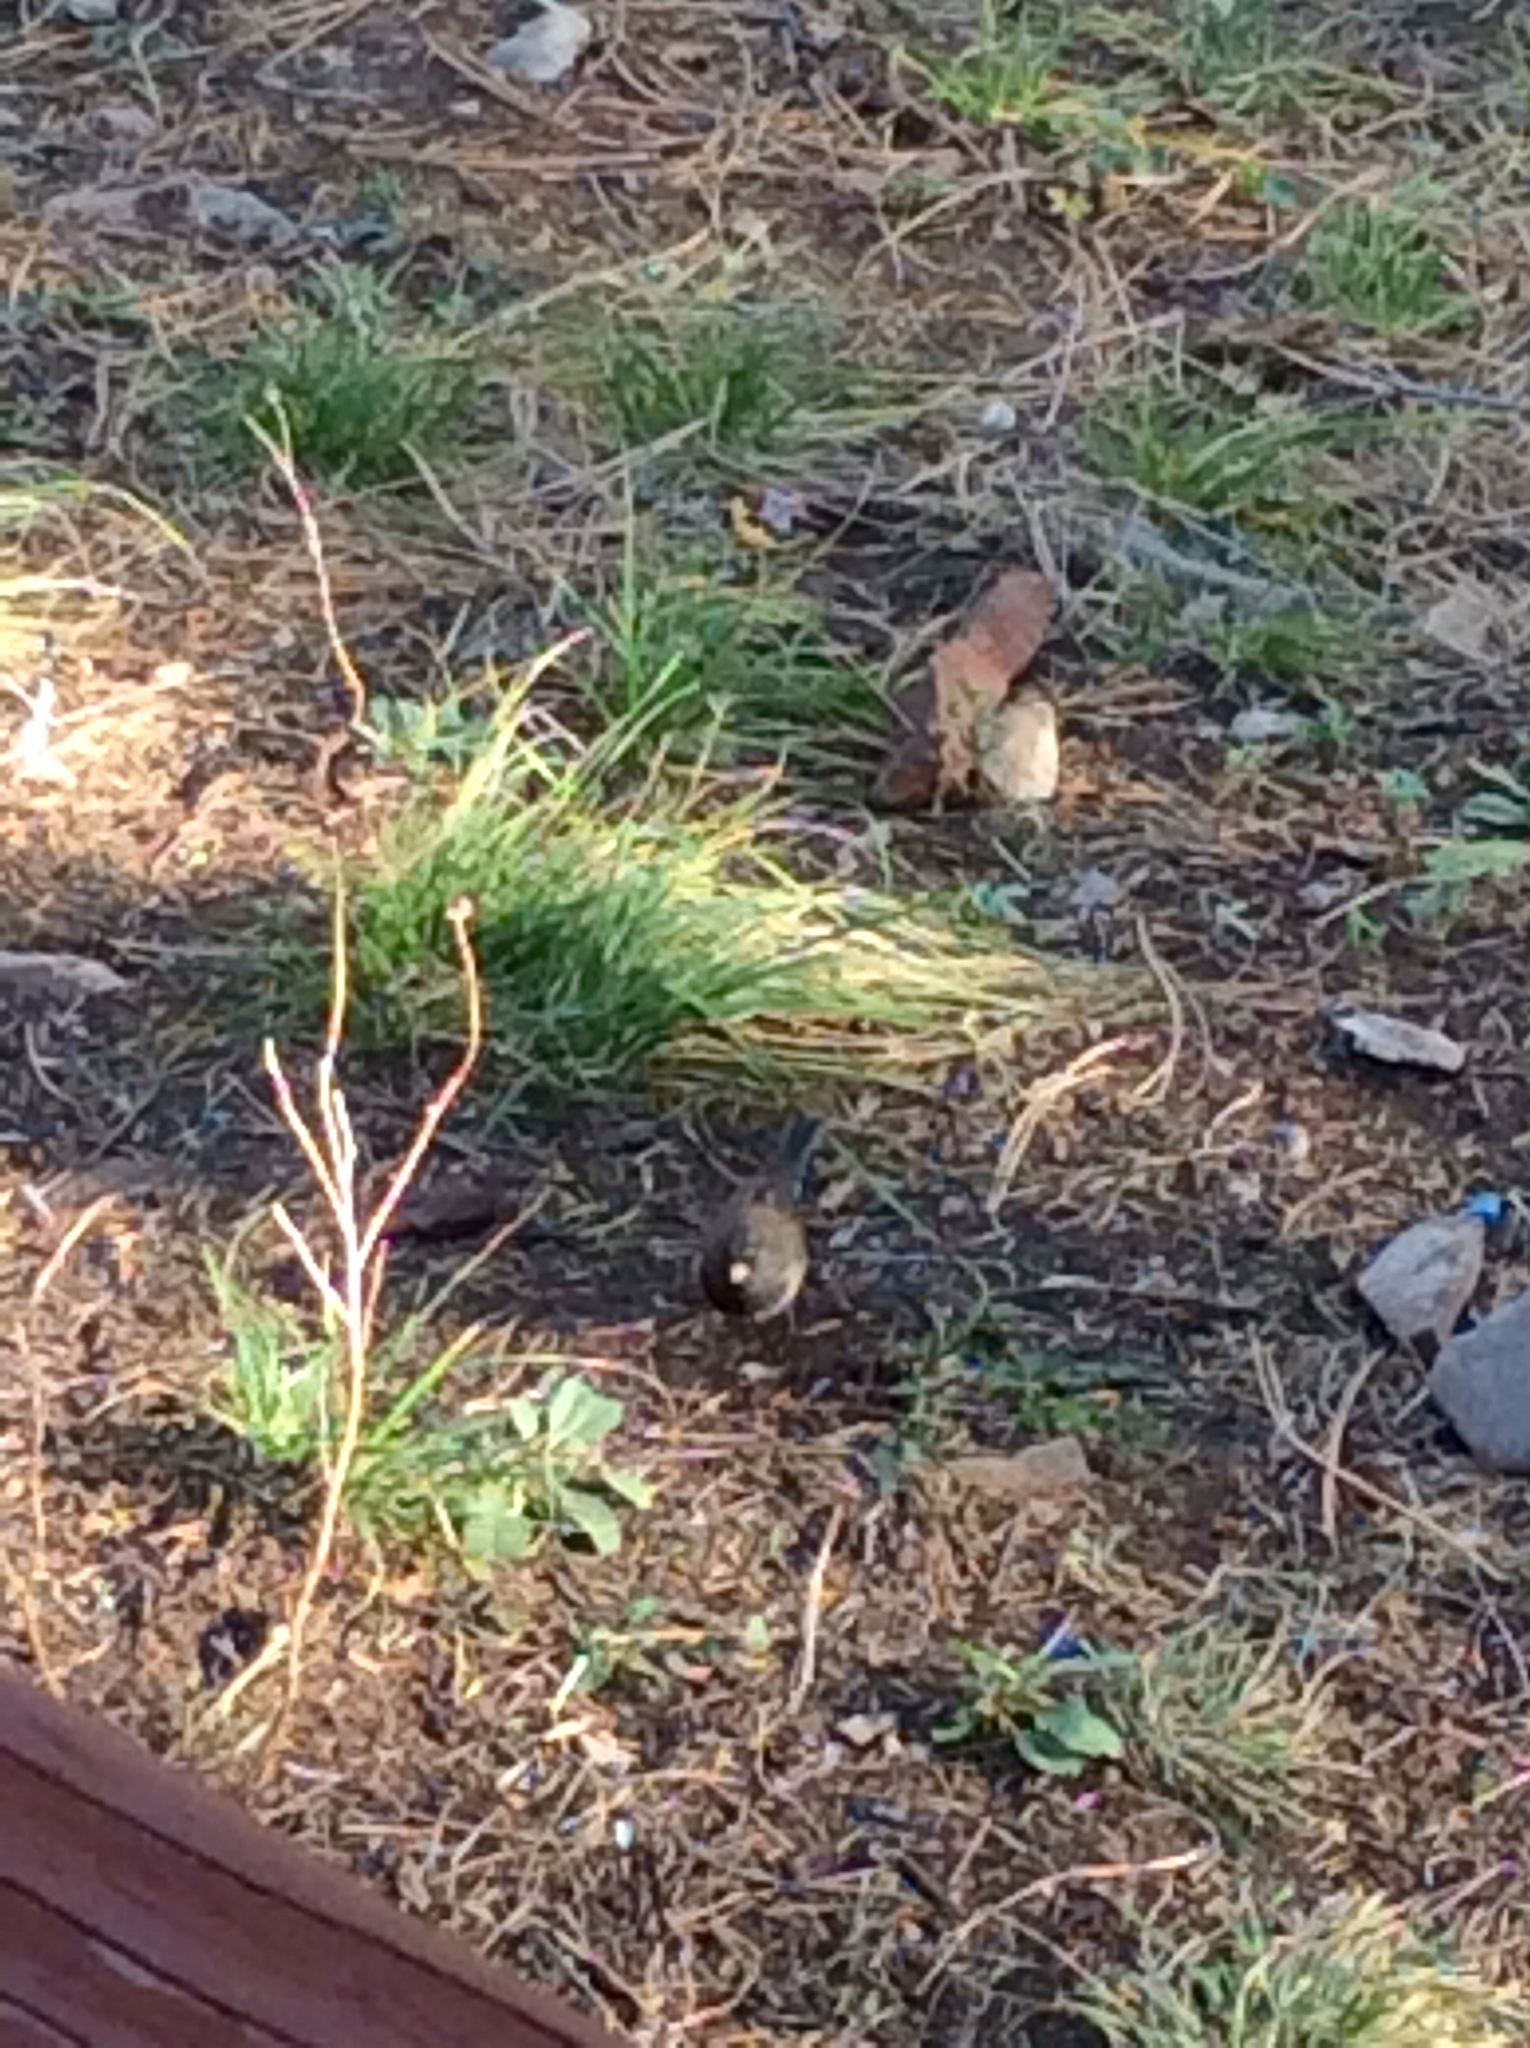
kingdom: Animalia
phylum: Chordata
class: Aves
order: Passeriformes
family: Passerellidae
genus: Junco
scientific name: Junco hyemalis
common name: Dark-eyed junco
